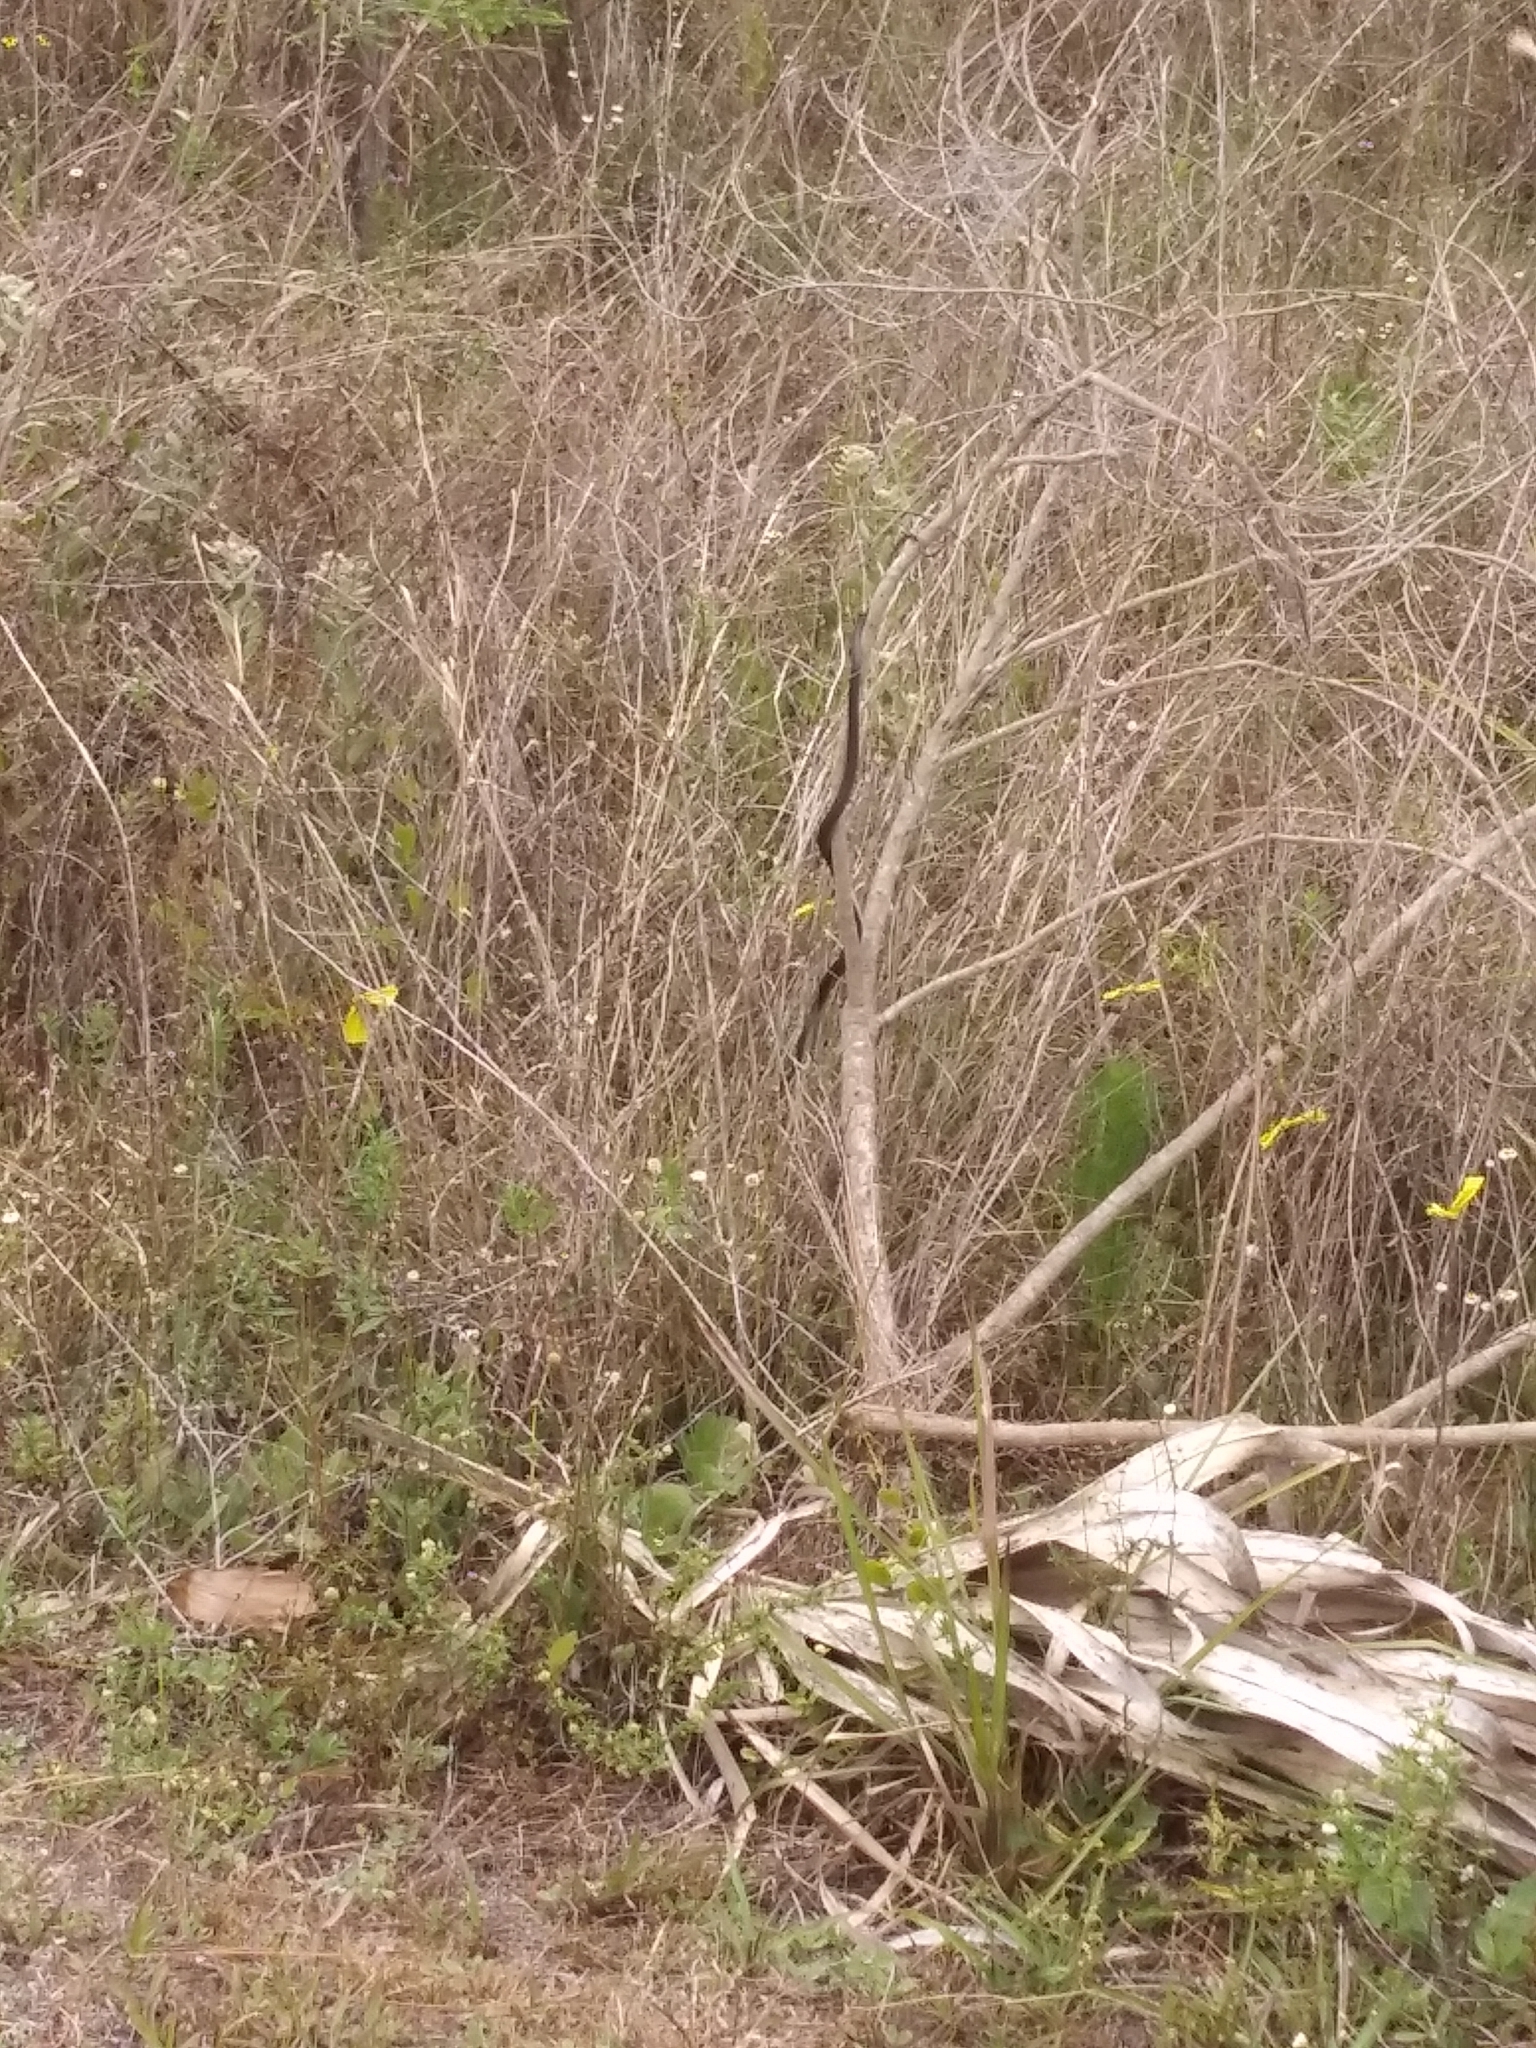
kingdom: Animalia
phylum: Chordata
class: Squamata
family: Colubridae
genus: Coluber
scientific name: Coluber constrictor
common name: Eastern racer
